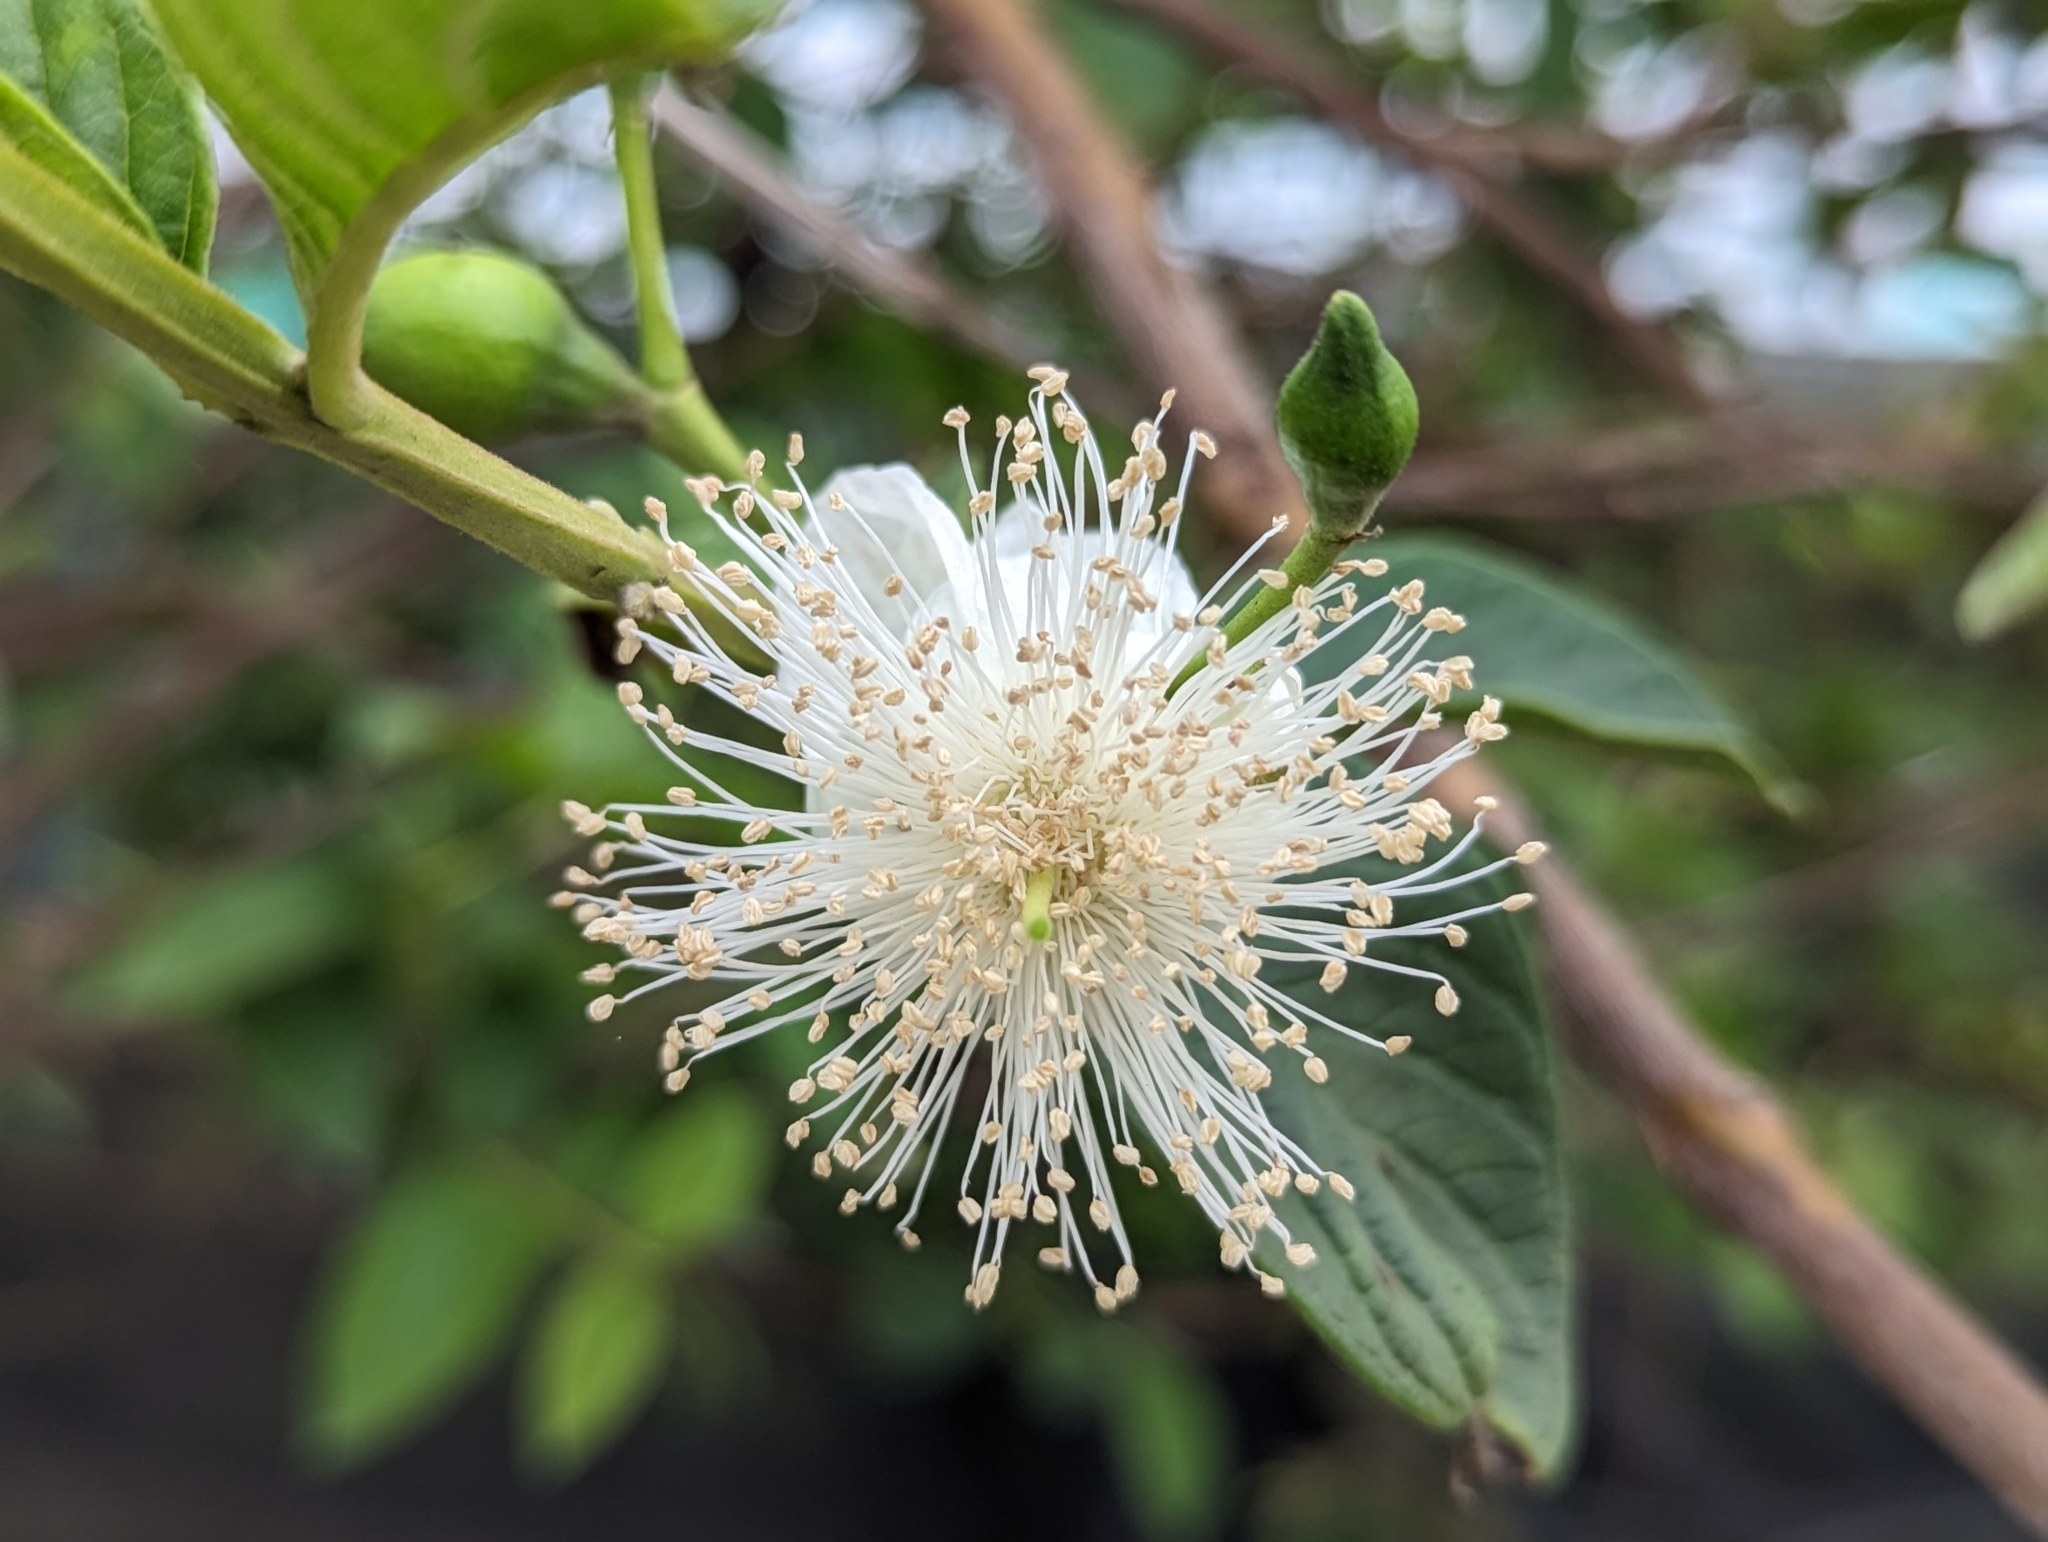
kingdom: Plantae
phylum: Tracheophyta
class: Magnoliopsida
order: Myrtales
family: Myrtaceae
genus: Psidium
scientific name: Psidium guajava
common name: Guava
